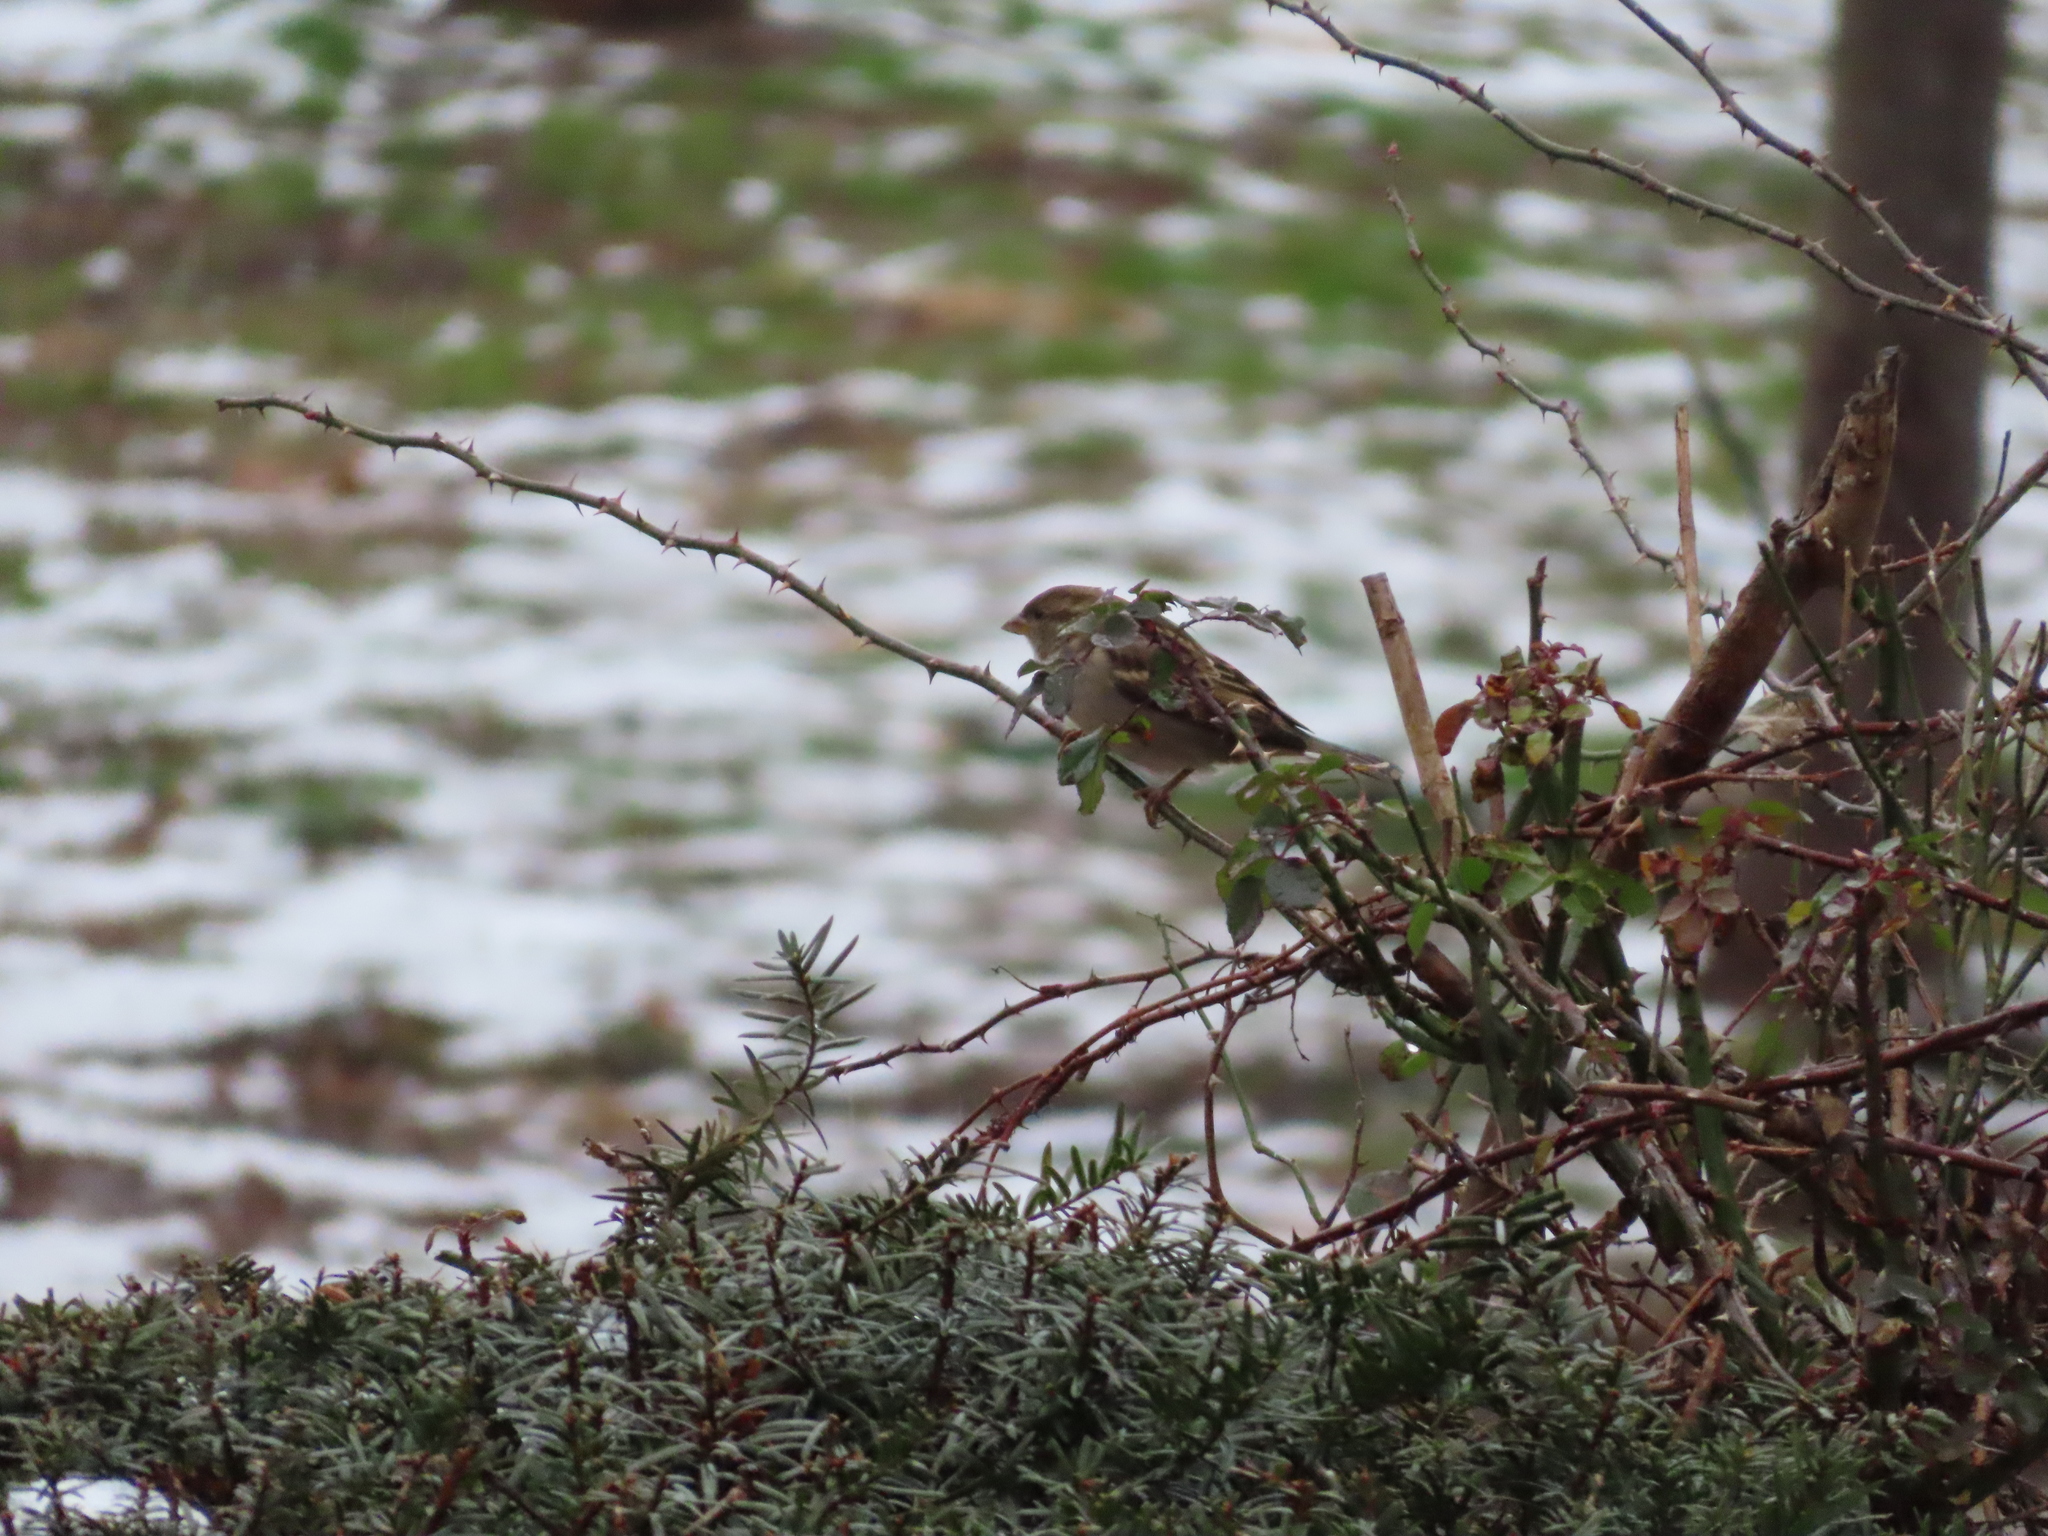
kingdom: Animalia
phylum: Chordata
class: Aves
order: Passeriformes
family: Passeridae
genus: Passer
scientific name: Passer domesticus
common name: House sparrow
